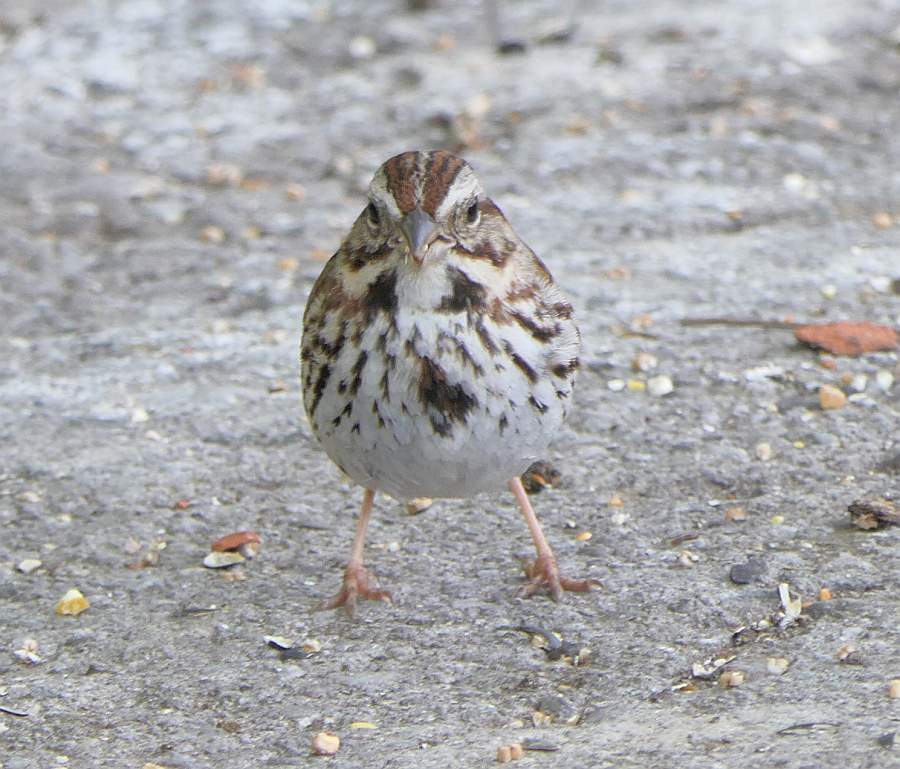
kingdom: Animalia
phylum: Chordata
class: Aves
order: Passeriformes
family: Passerellidae
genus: Melospiza
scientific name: Melospiza melodia
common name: Song sparrow
